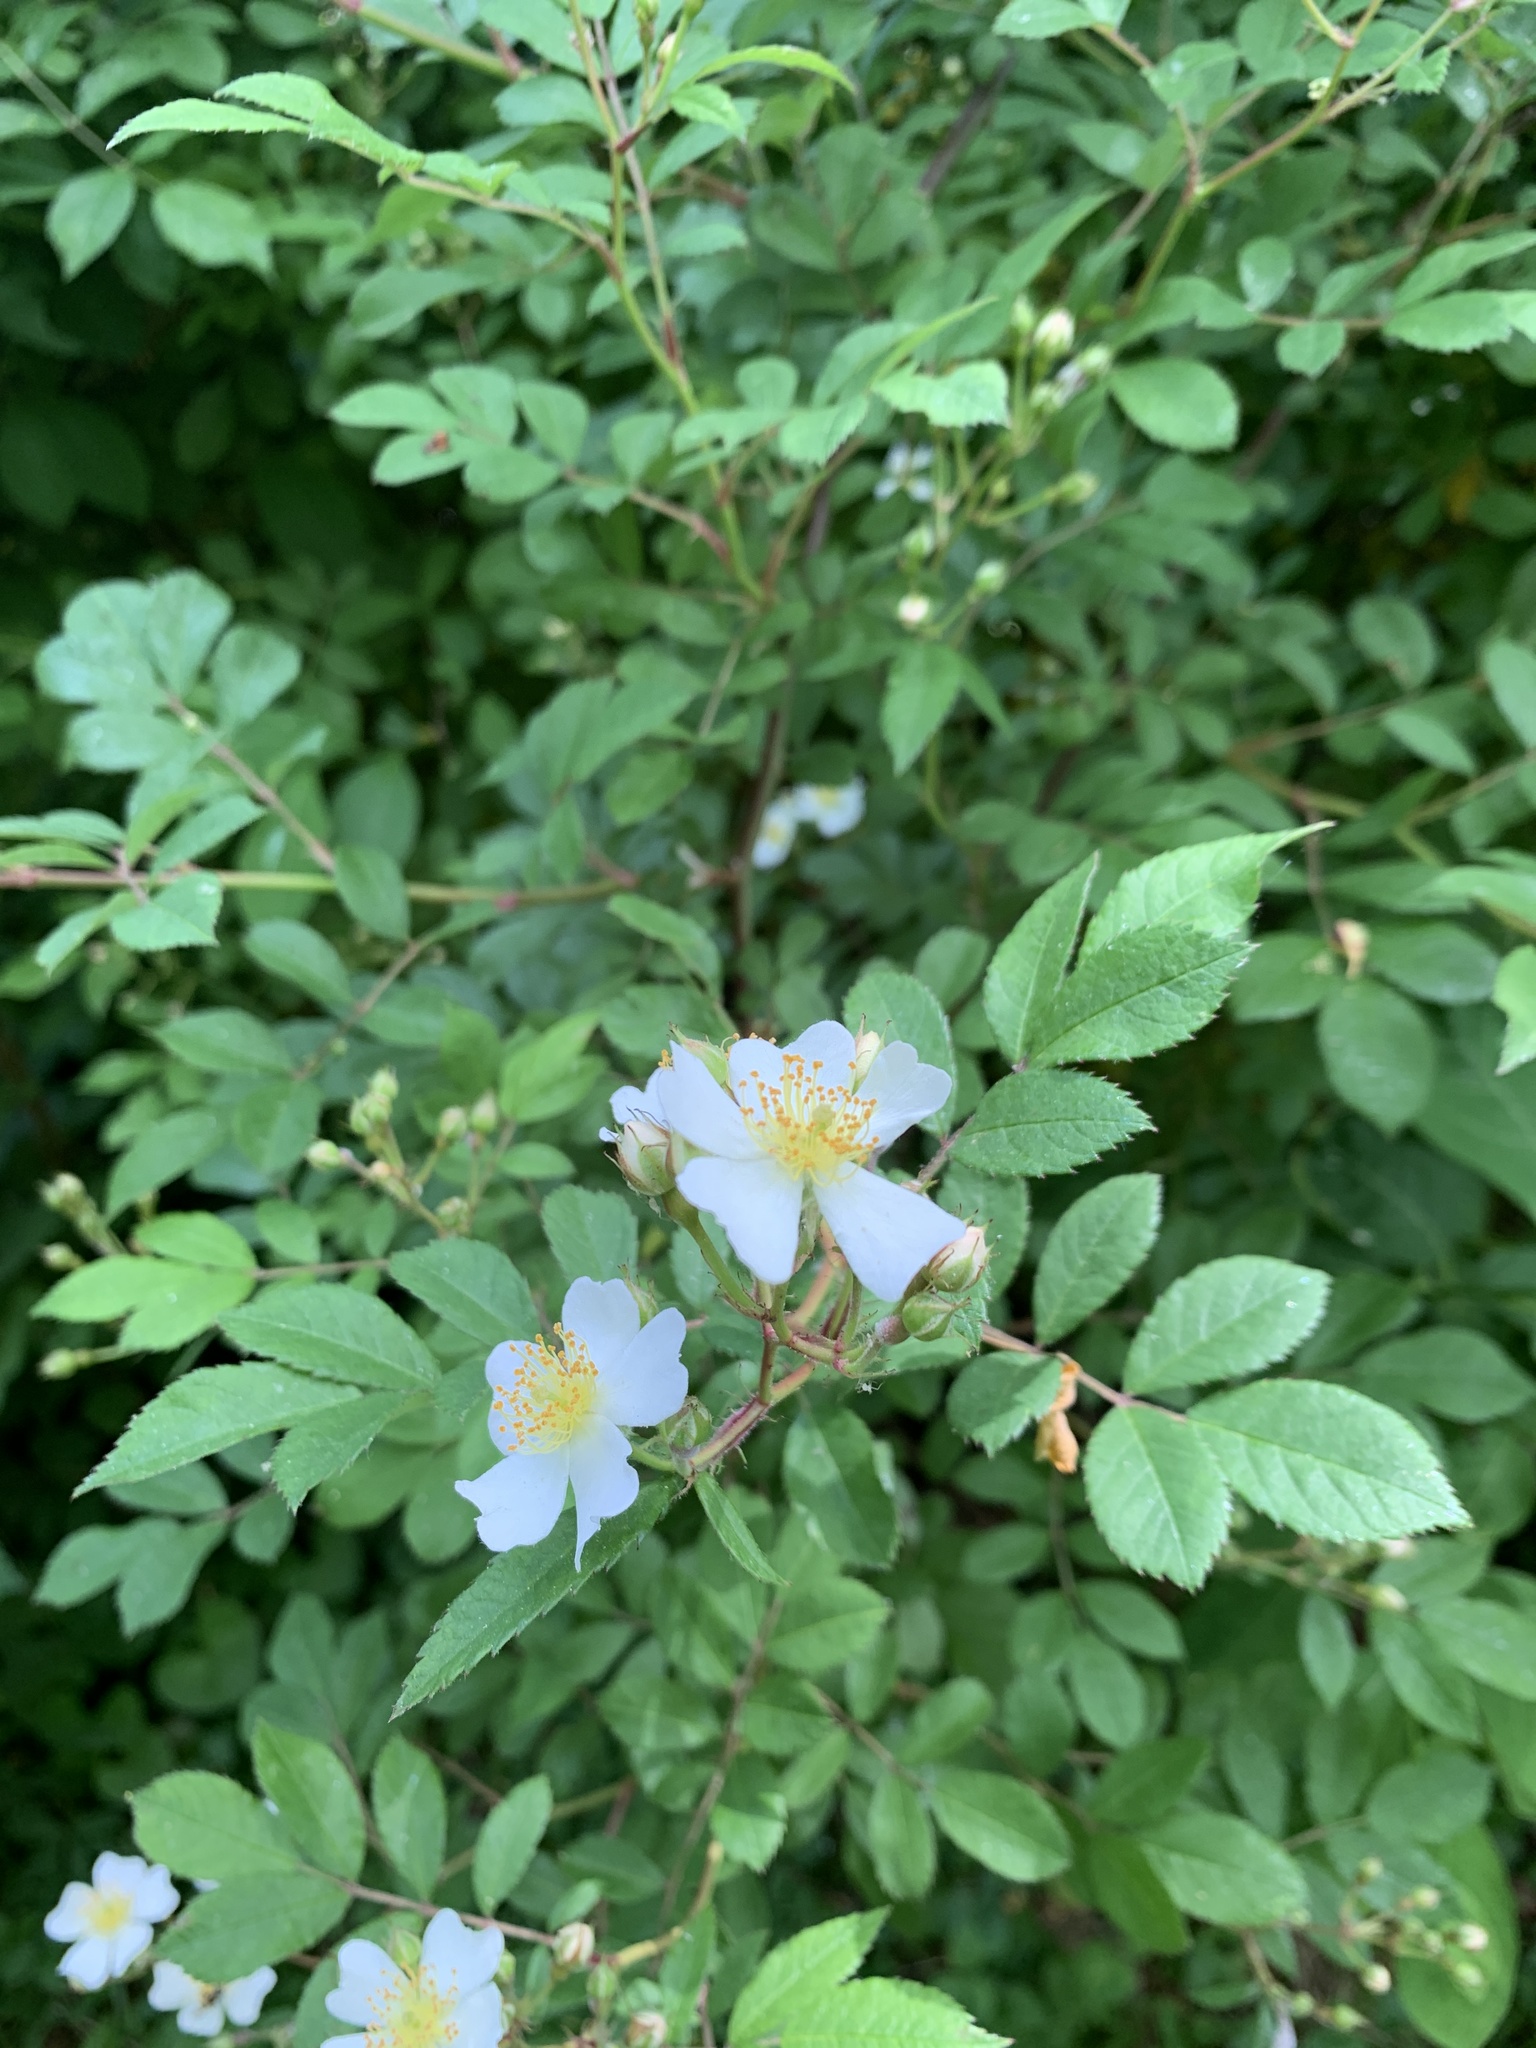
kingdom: Plantae
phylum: Tracheophyta
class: Magnoliopsida
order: Rosales
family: Rosaceae
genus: Rosa
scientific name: Rosa multiflora
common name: Multiflora rose
